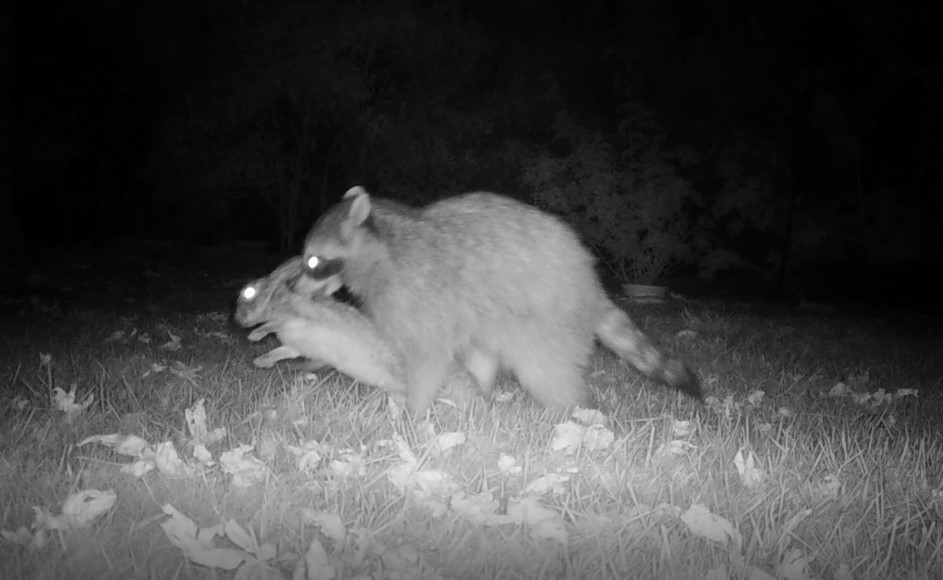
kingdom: Animalia
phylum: Chordata
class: Mammalia
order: Carnivora
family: Procyonidae
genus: Procyon
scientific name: Procyon lotor
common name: Raccoon
